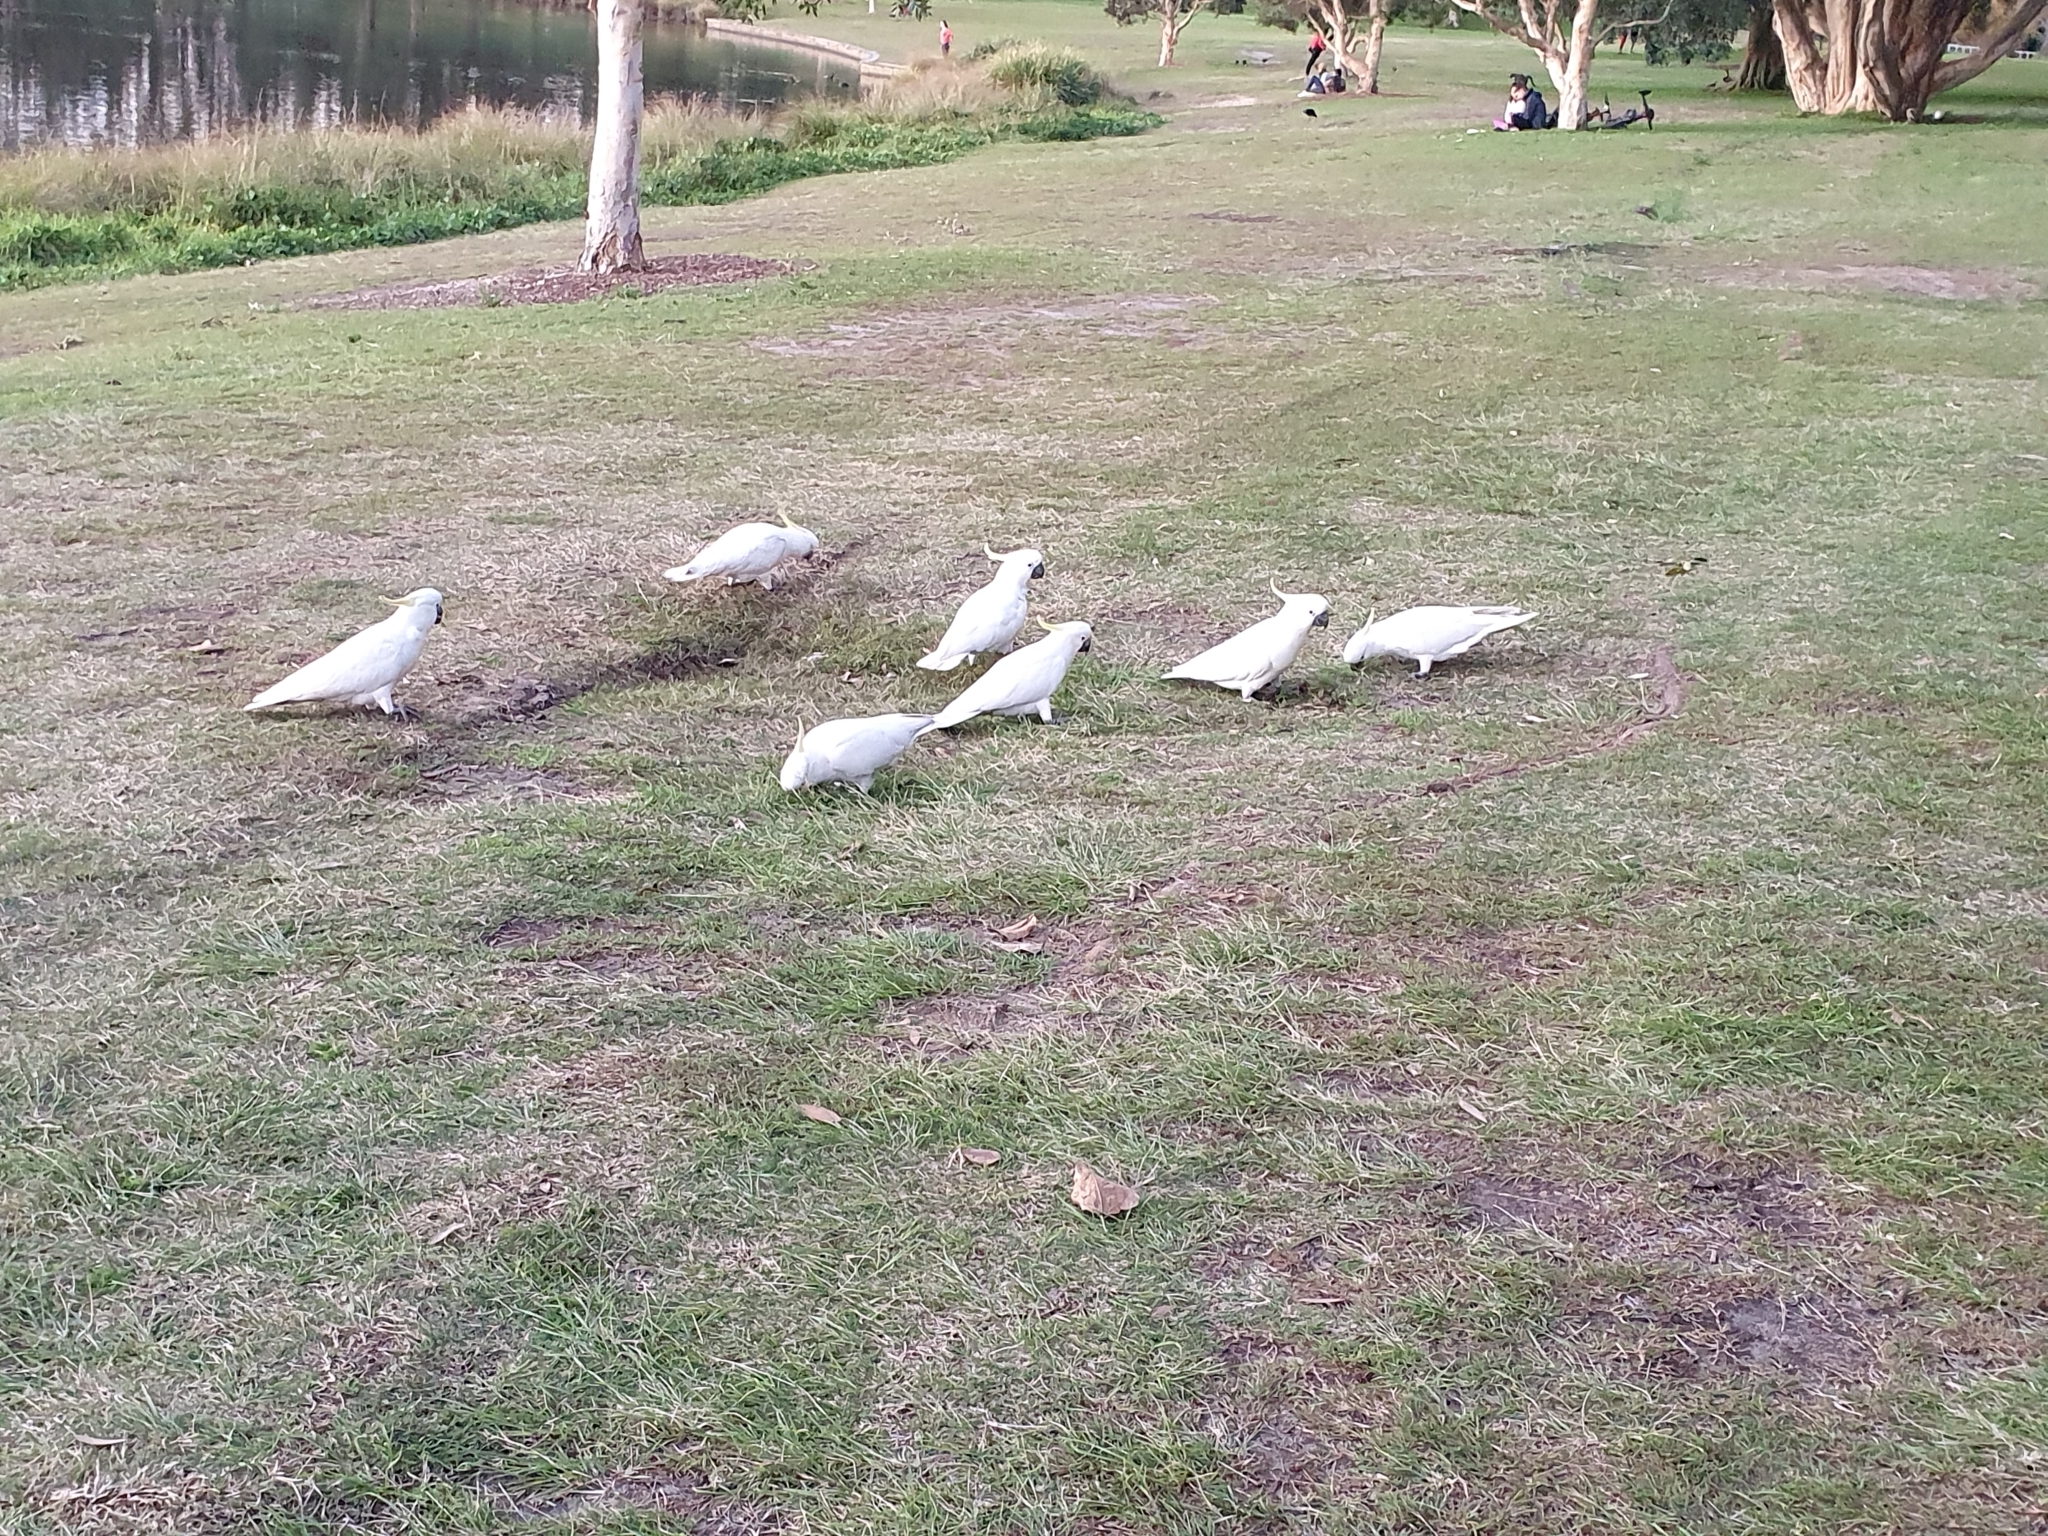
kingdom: Animalia
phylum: Chordata
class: Aves
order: Psittaciformes
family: Psittacidae
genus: Cacatua
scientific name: Cacatua galerita
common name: Sulphur-crested cockatoo
